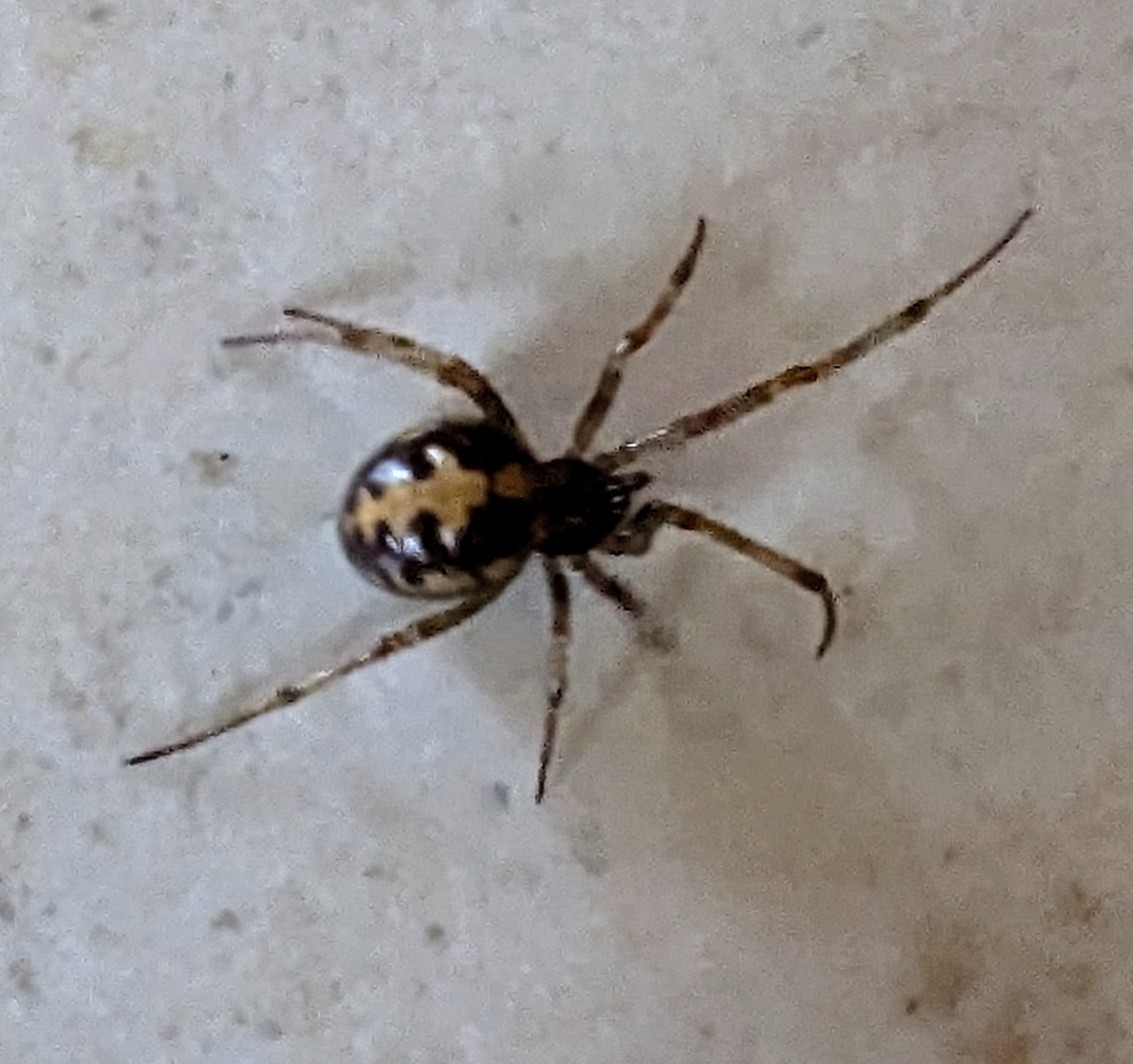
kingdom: Animalia
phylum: Arthropoda
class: Arachnida
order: Araneae
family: Theridiidae
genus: Steatoda
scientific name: Steatoda triangulosa
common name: Triangulate bud spider
